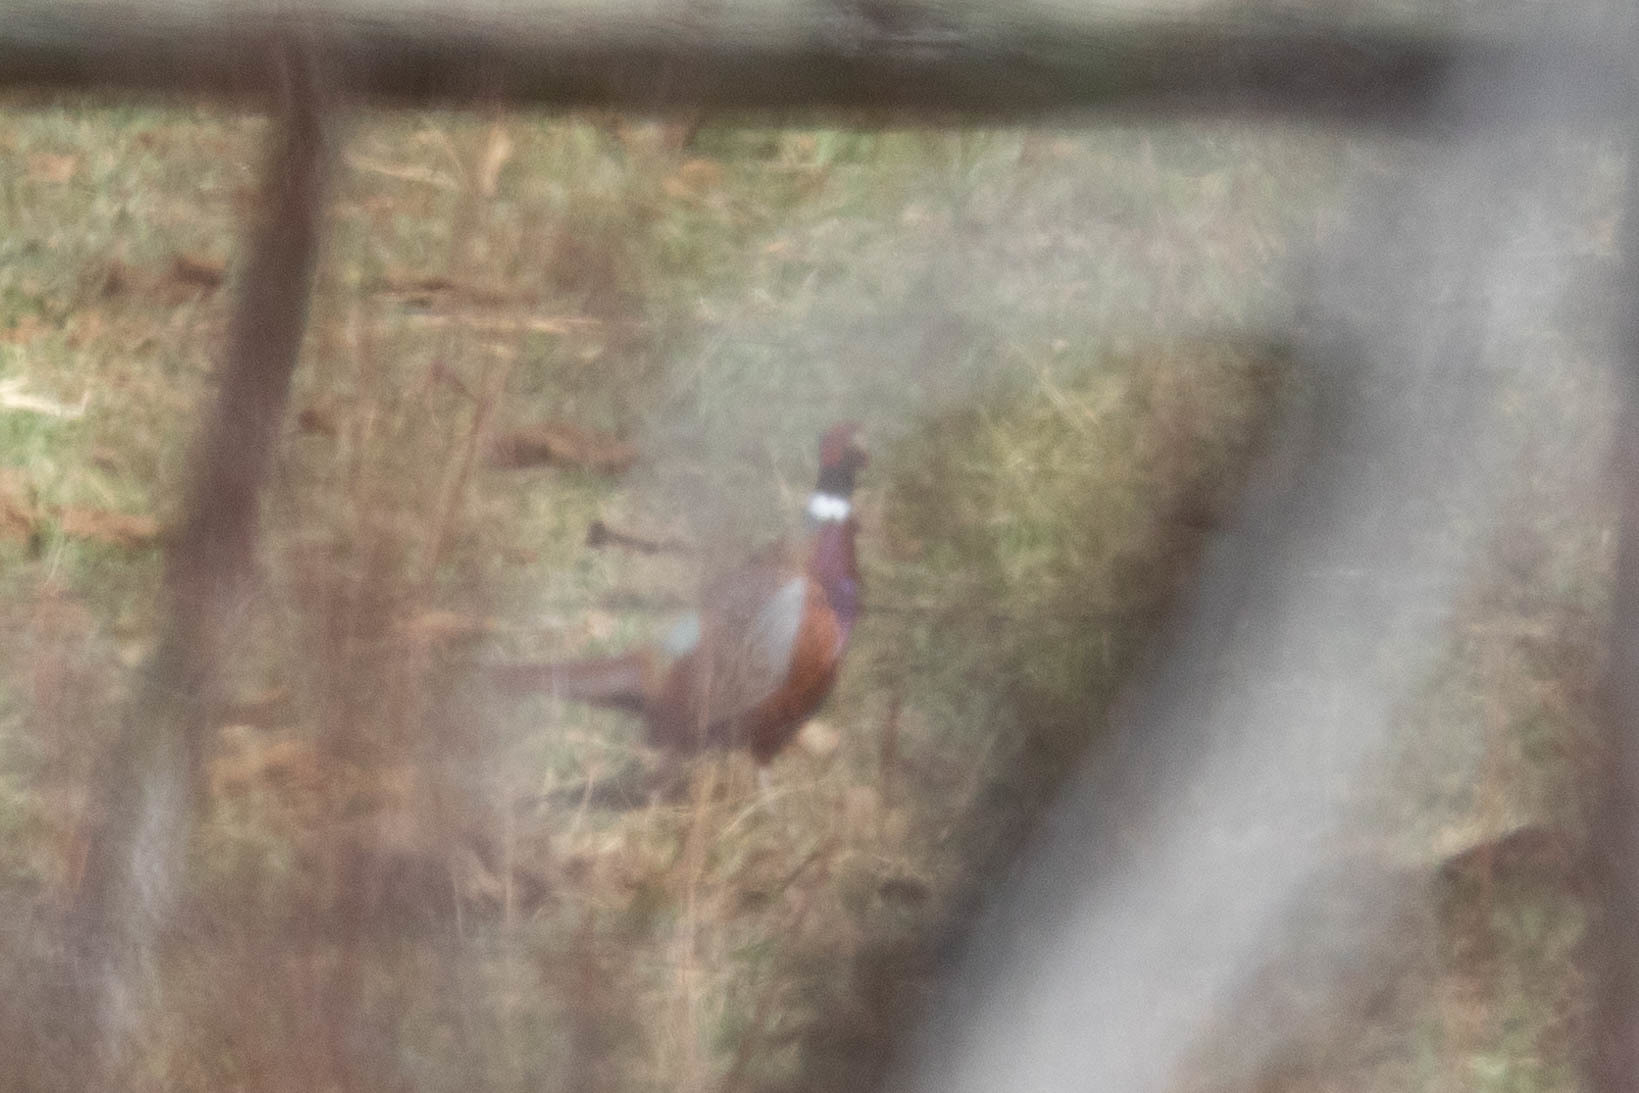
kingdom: Animalia
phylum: Chordata
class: Aves
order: Galliformes
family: Phasianidae
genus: Phasianus
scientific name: Phasianus colchicus
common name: Common pheasant
